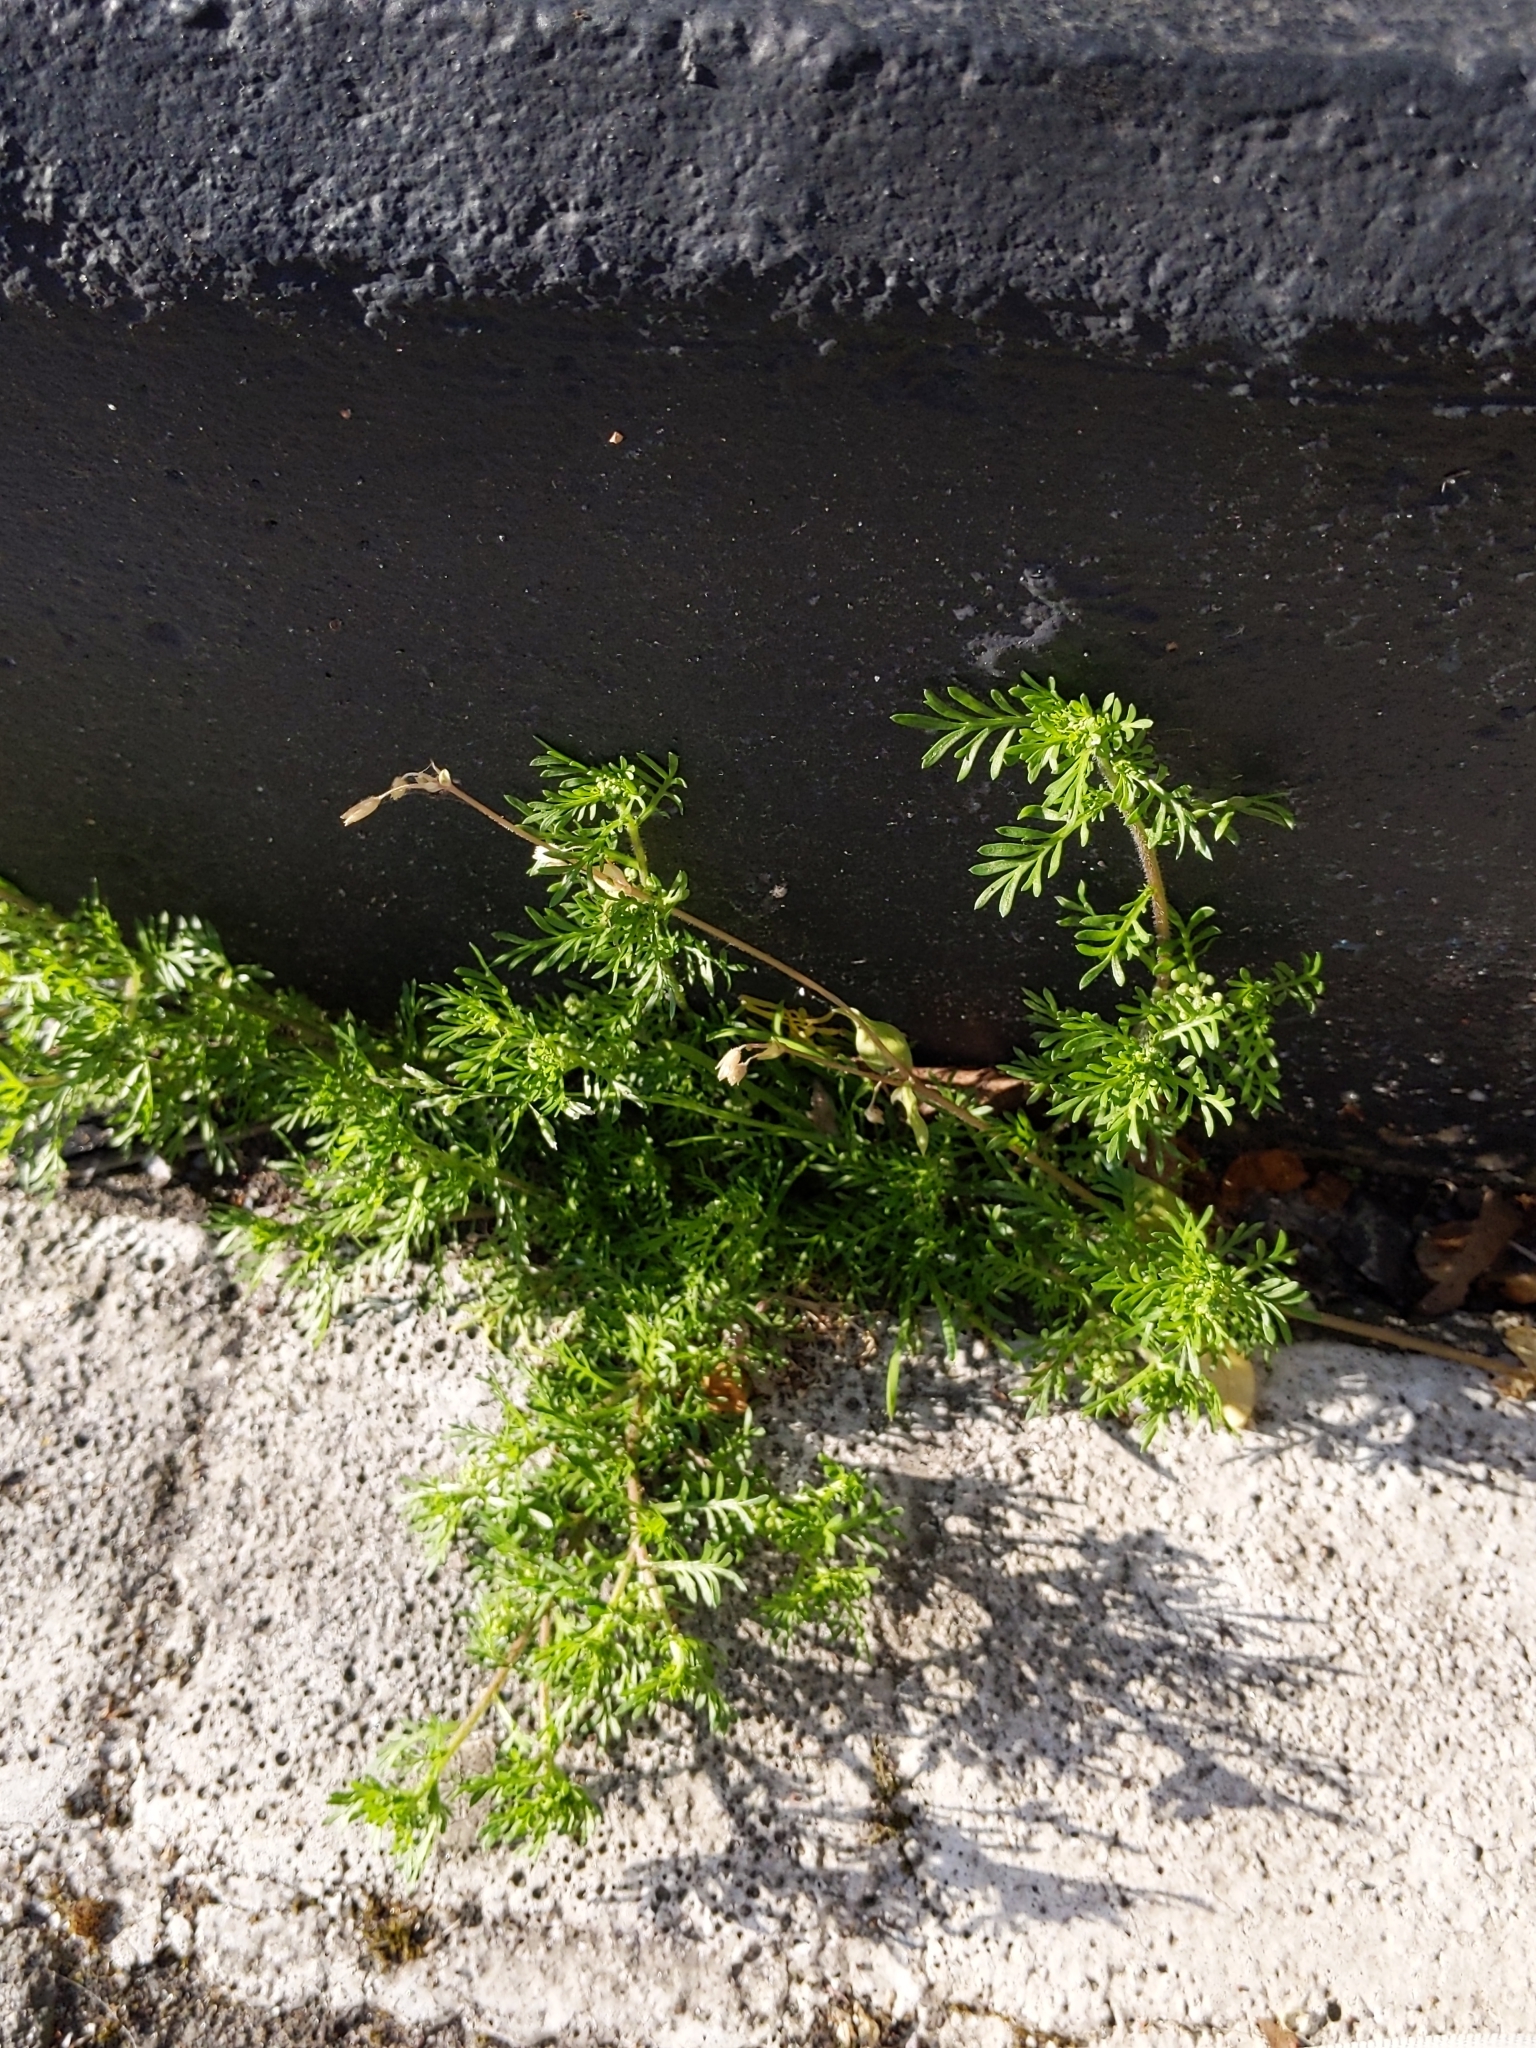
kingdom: Plantae
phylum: Tracheophyta
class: Magnoliopsida
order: Brassicales
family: Brassicaceae
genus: Lepidium
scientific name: Lepidium didymum
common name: Lesser swinecress
